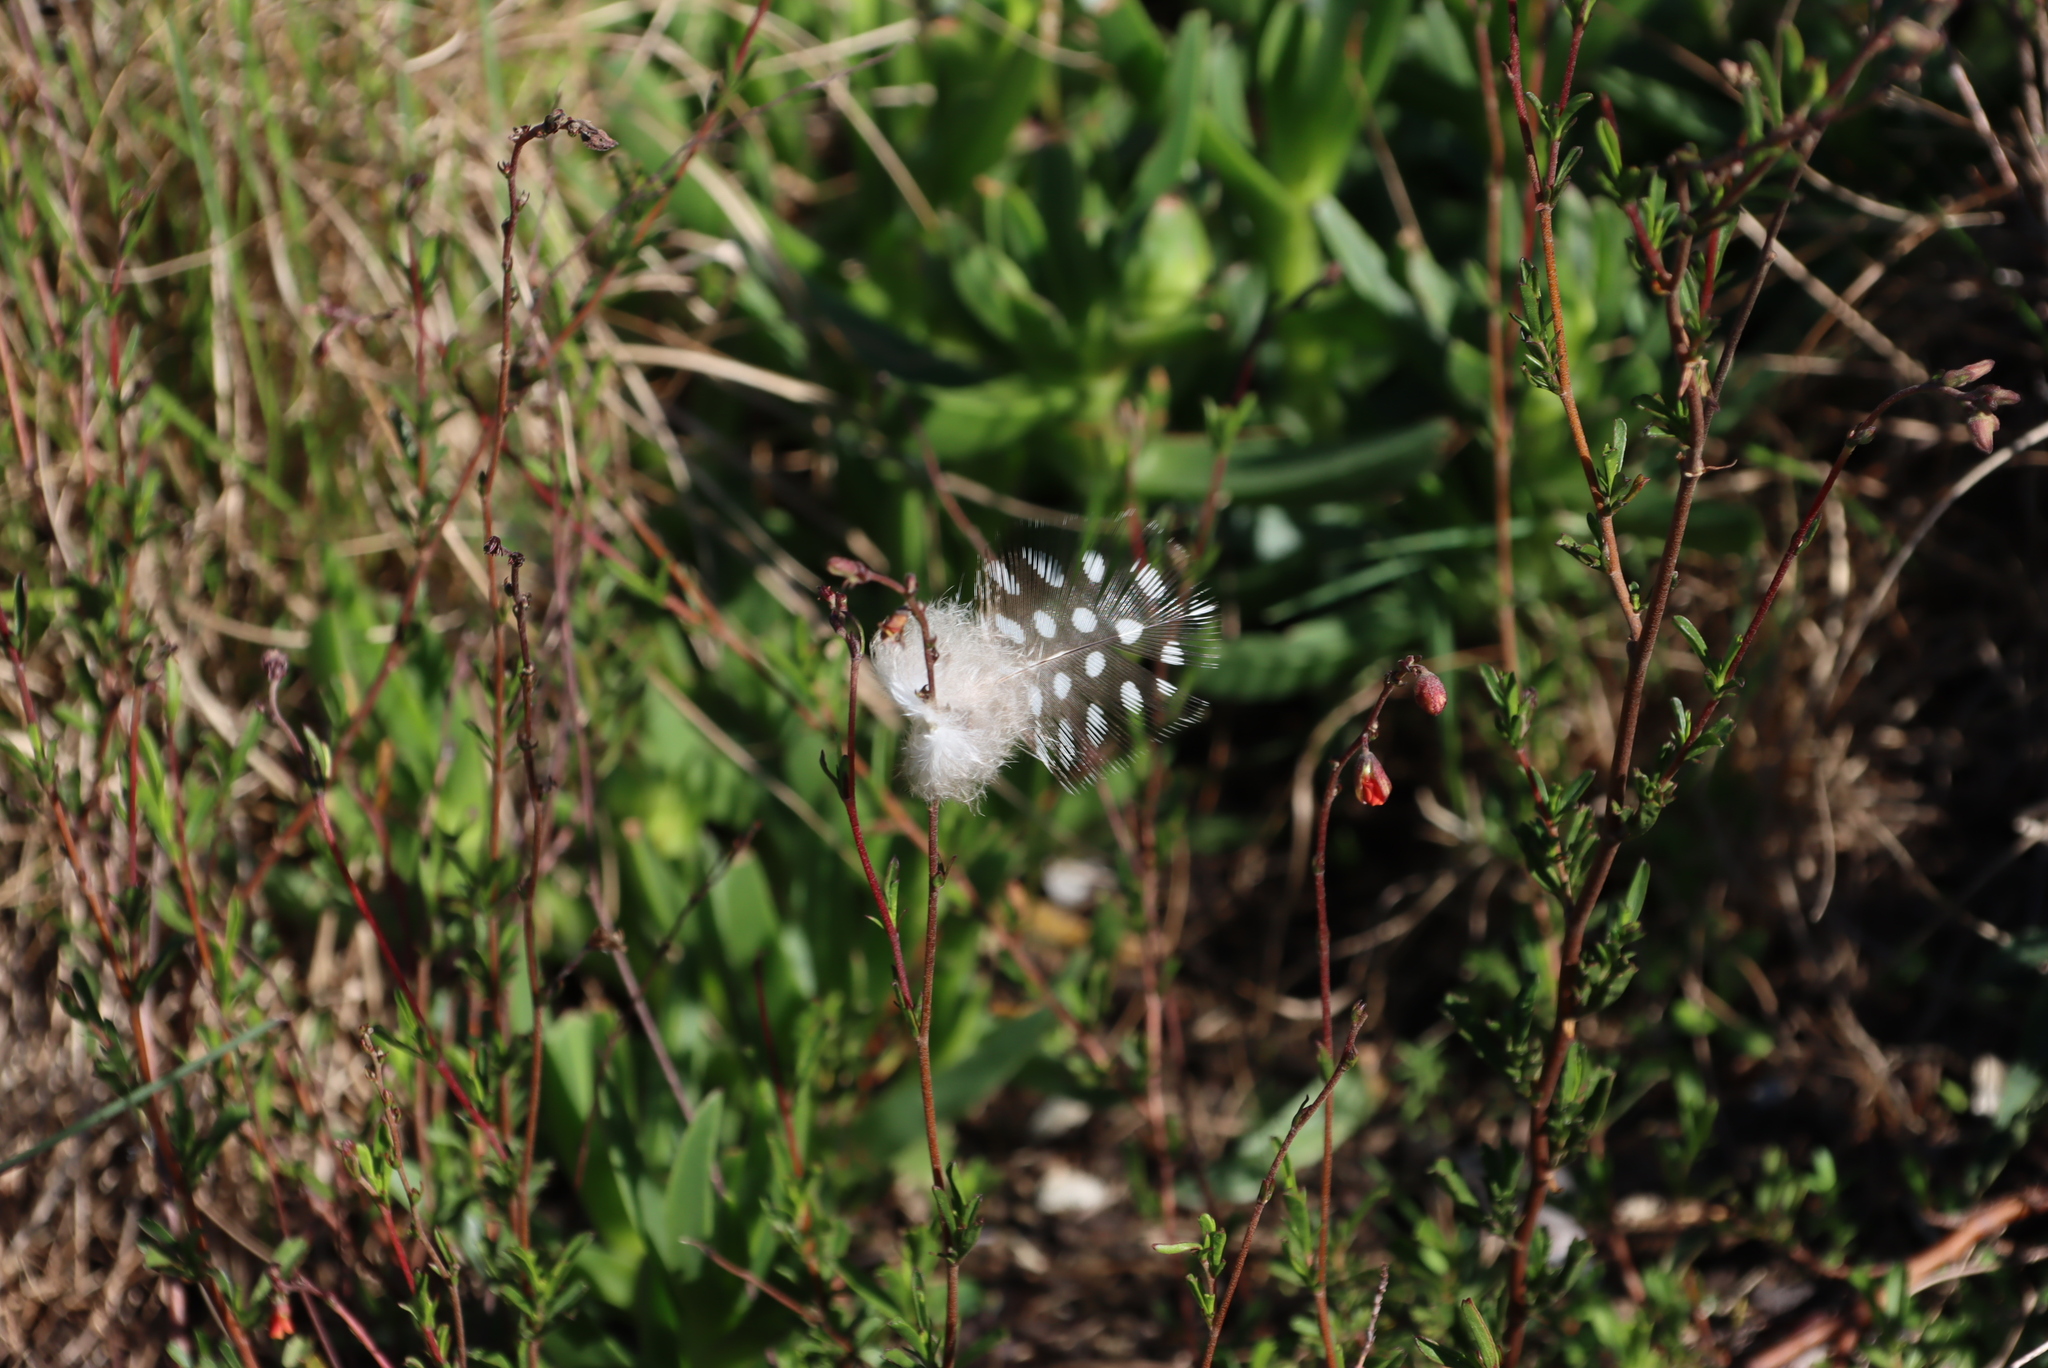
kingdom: Plantae
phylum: Tracheophyta
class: Magnoliopsida
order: Malvales
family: Malvaceae
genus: Hermannia
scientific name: Hermannia flammea
